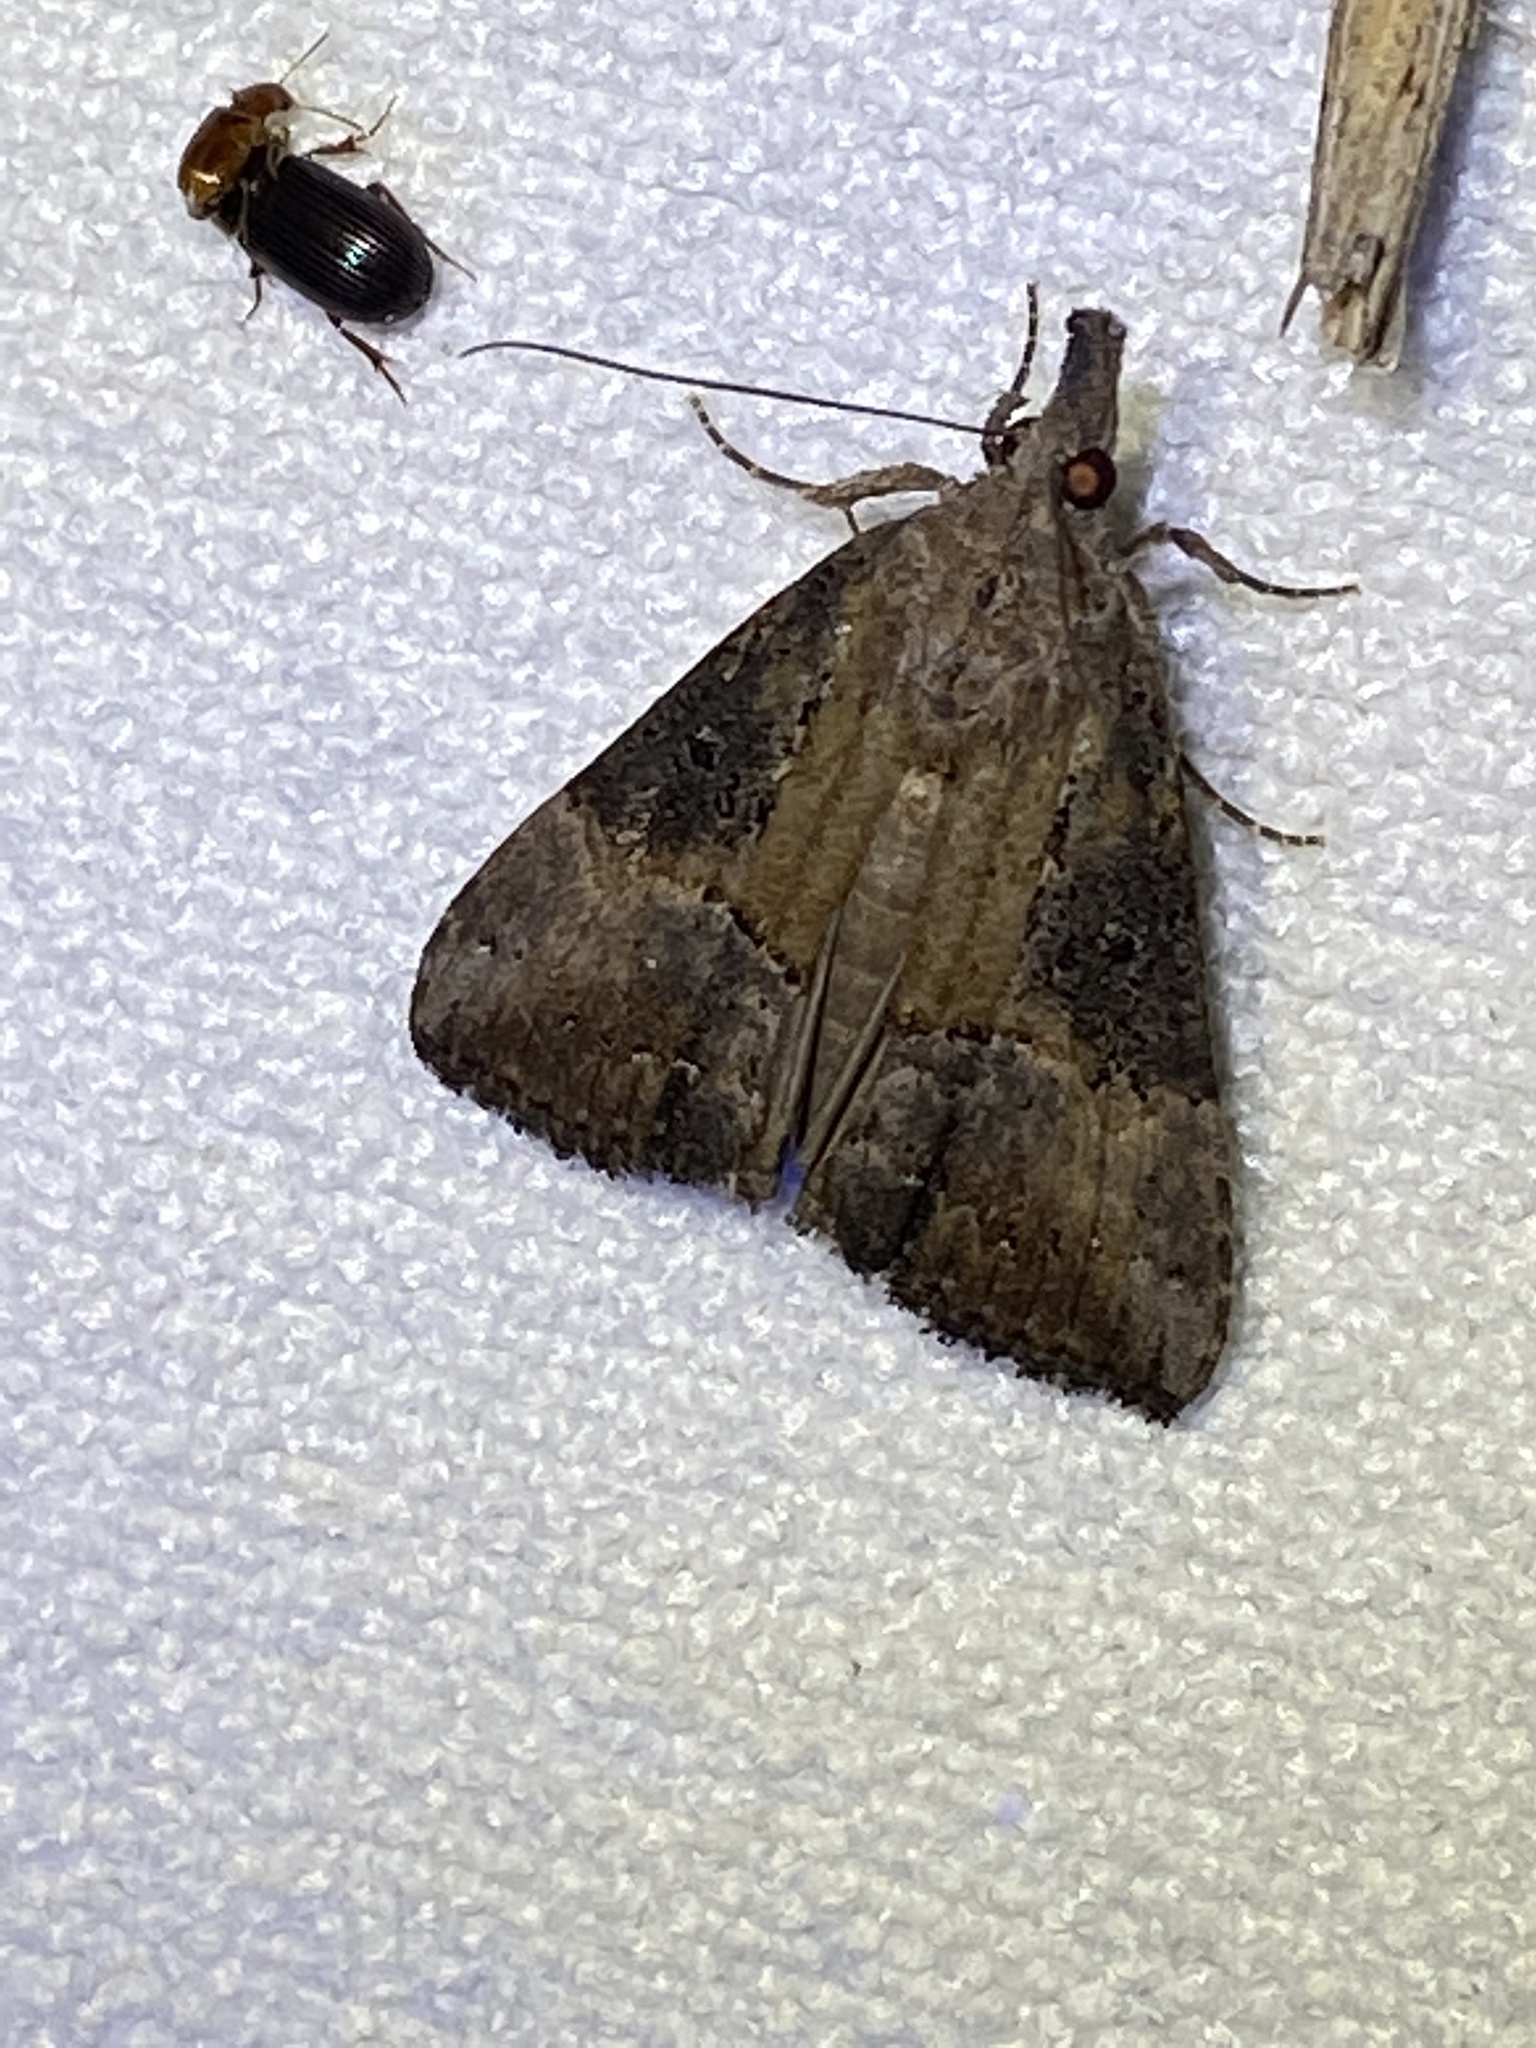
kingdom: Animalia
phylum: Arthropoda
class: Insecta
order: Lepidoptera
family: Erebidae
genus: Hypena
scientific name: Hypena scabra
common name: Green cloverworm
